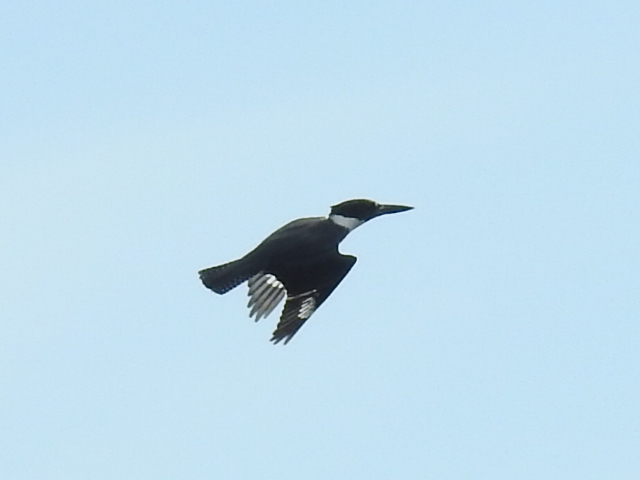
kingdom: Animalia
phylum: Chordata
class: Aves
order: Coraciiformes
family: Alcedinidae
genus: Megaceryle
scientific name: Megaceryle alcyon
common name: Belted kingfisher
